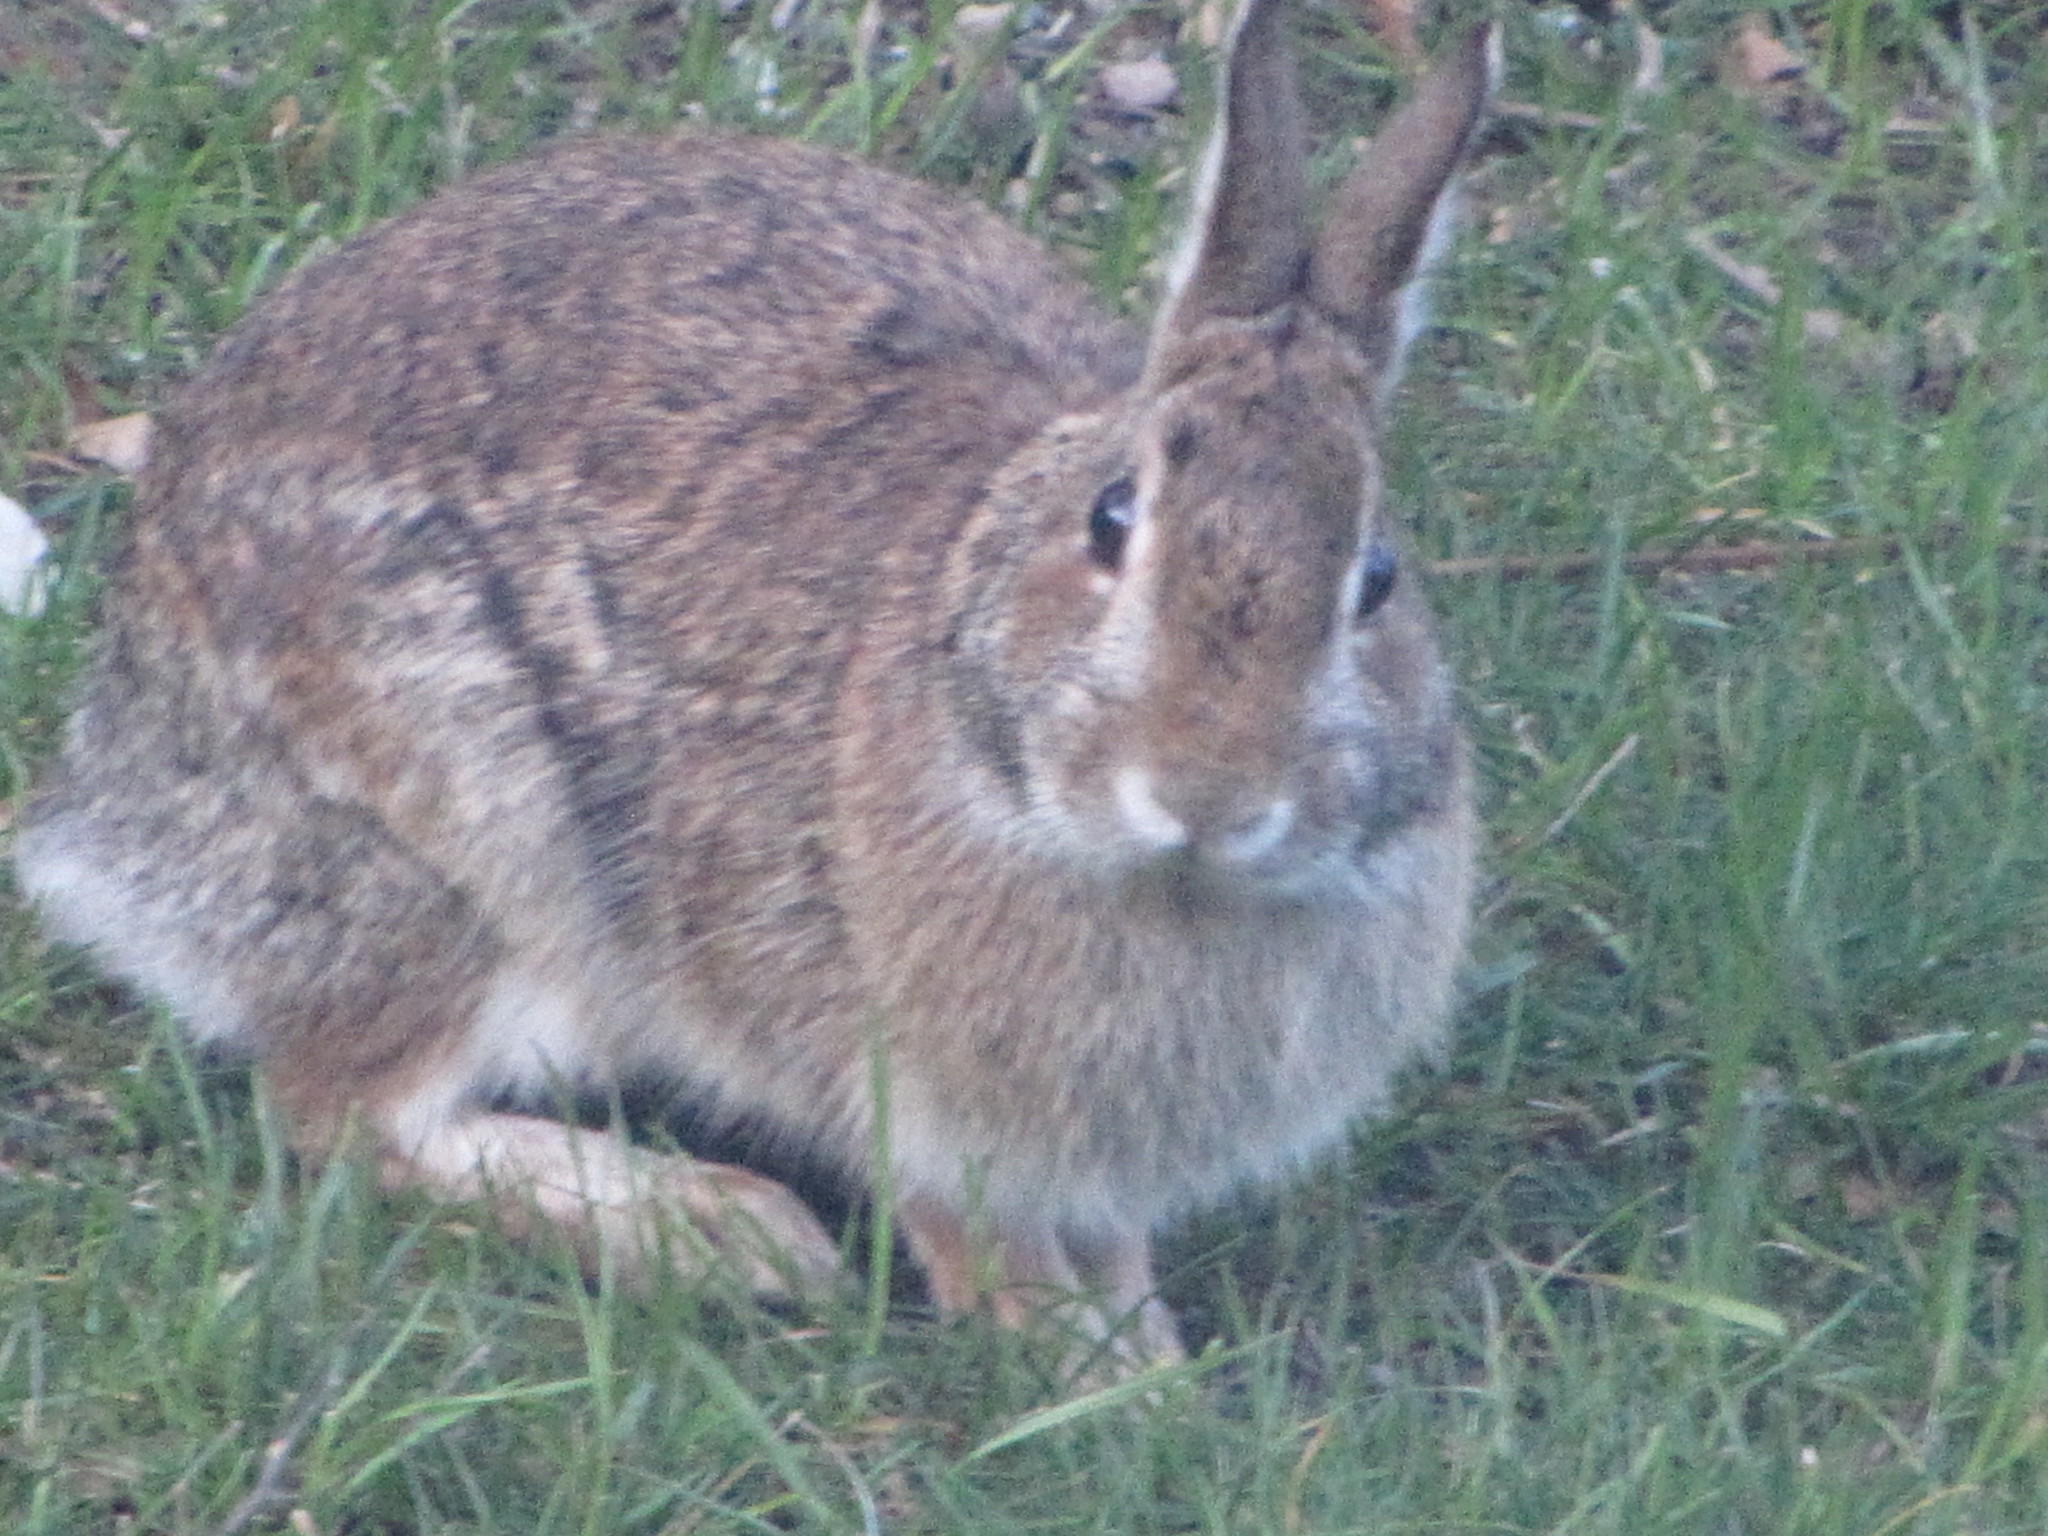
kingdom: Animalia
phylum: Chordata
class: Mammalia
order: Lagomorpha
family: Leporidae
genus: Sylvilagus
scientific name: Sylvilagus floridanus
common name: Eastern cottontail
